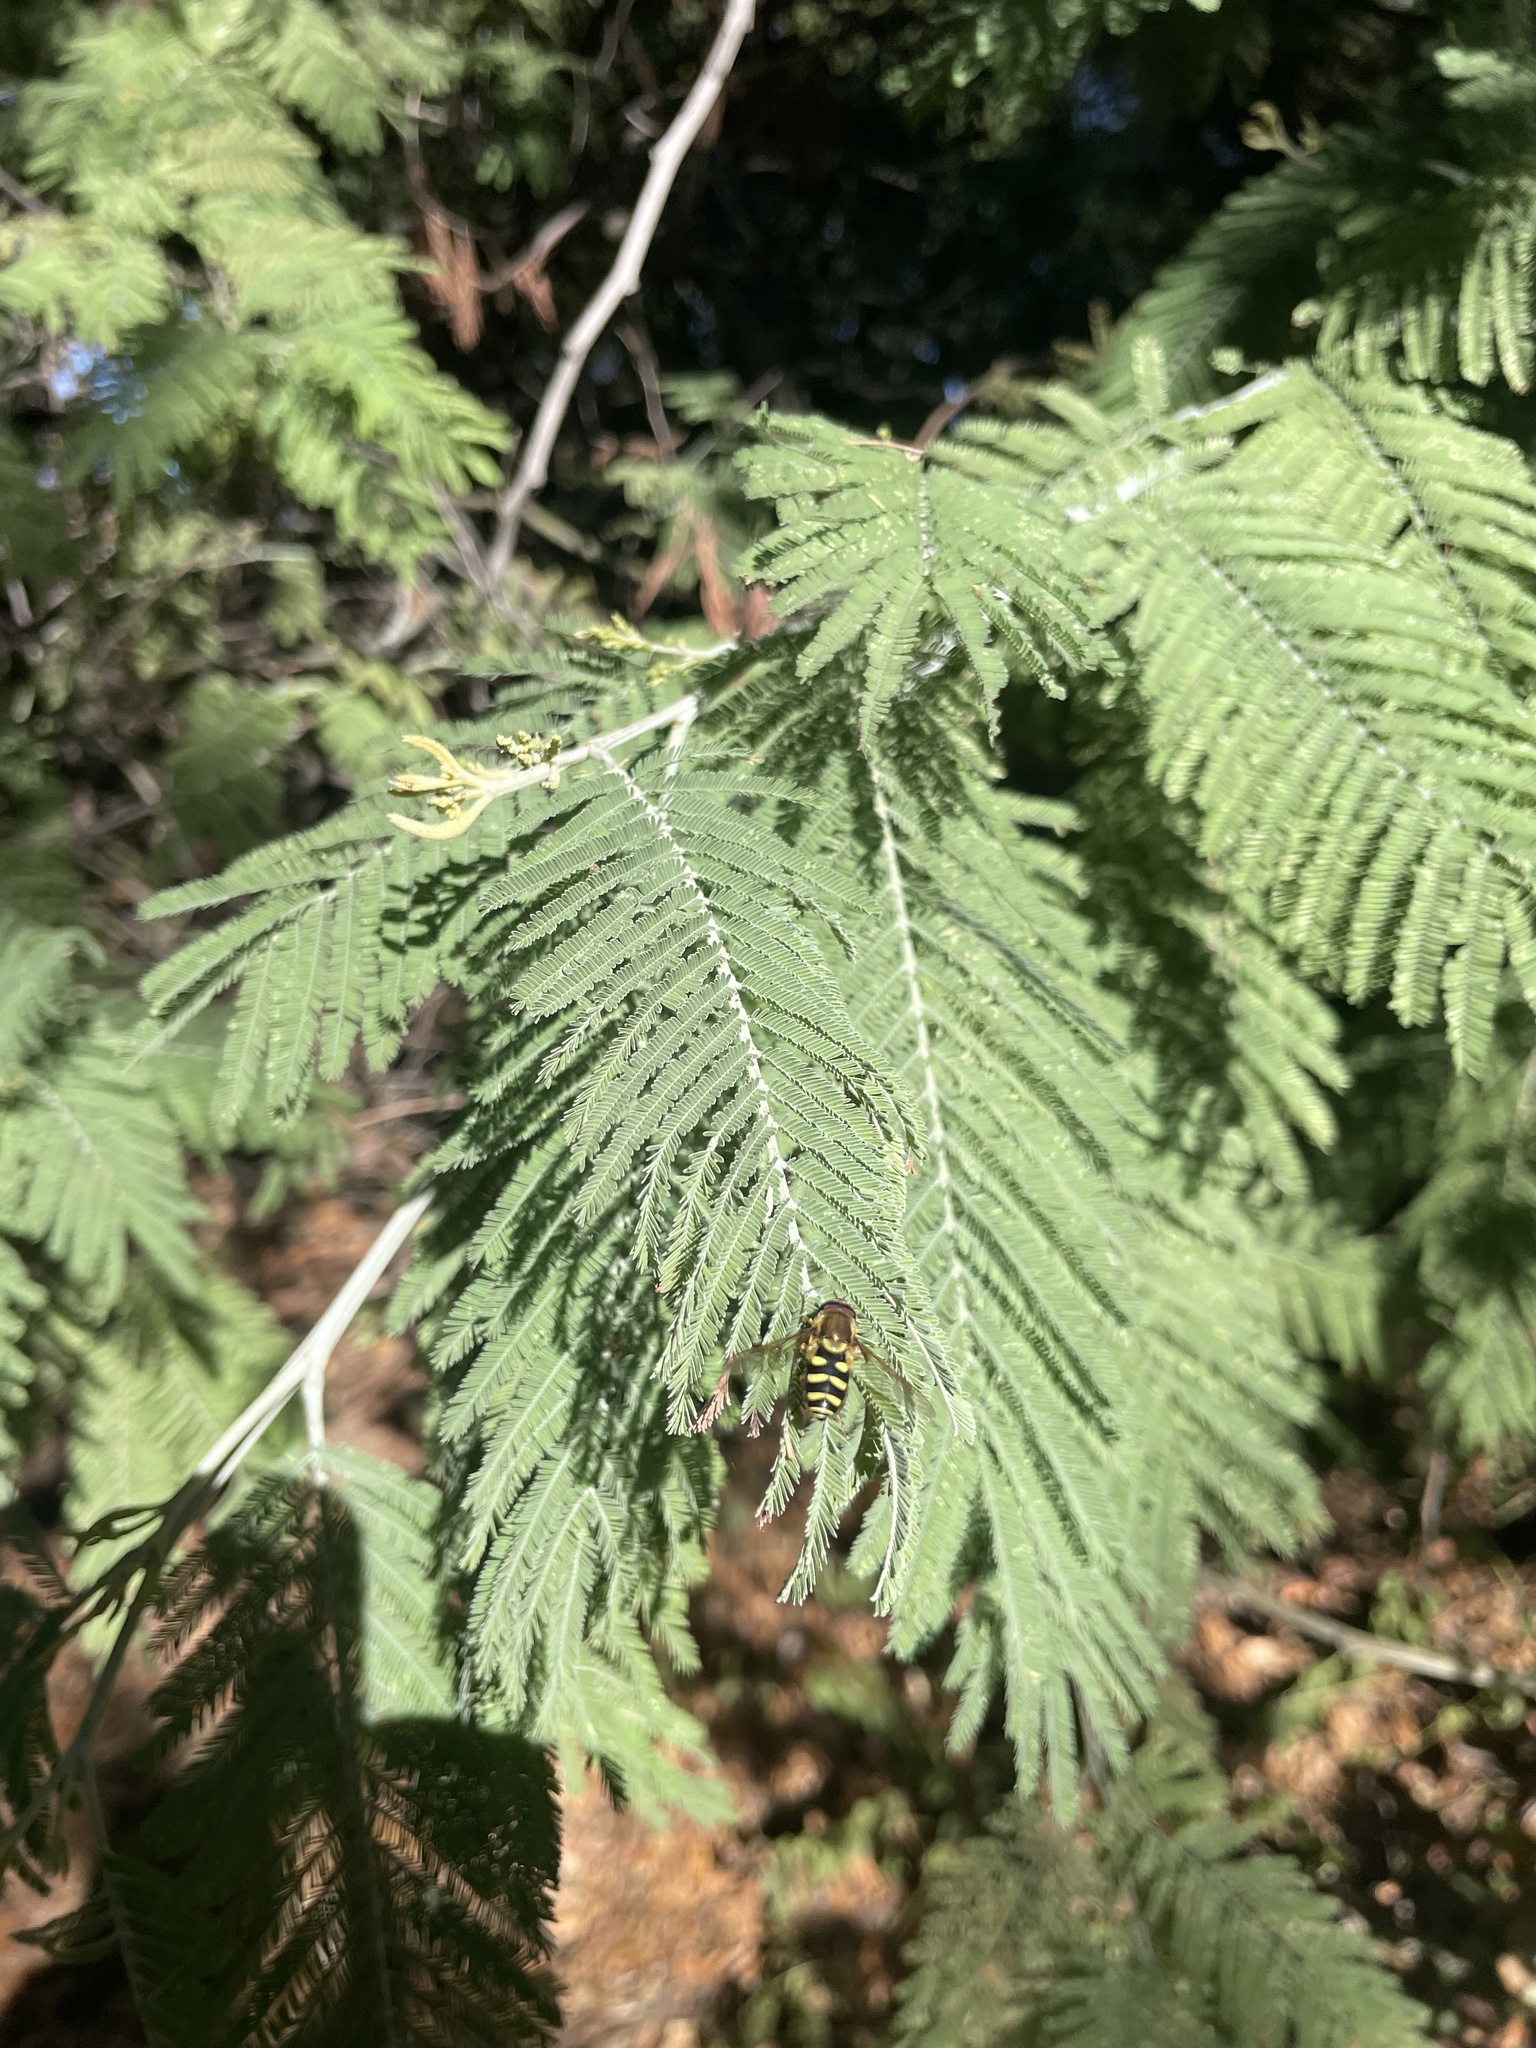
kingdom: Animalia
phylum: Arthropoda
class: Insecta
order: Diptera
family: Syrphidae
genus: Syrphus
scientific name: Syrphus opinator
